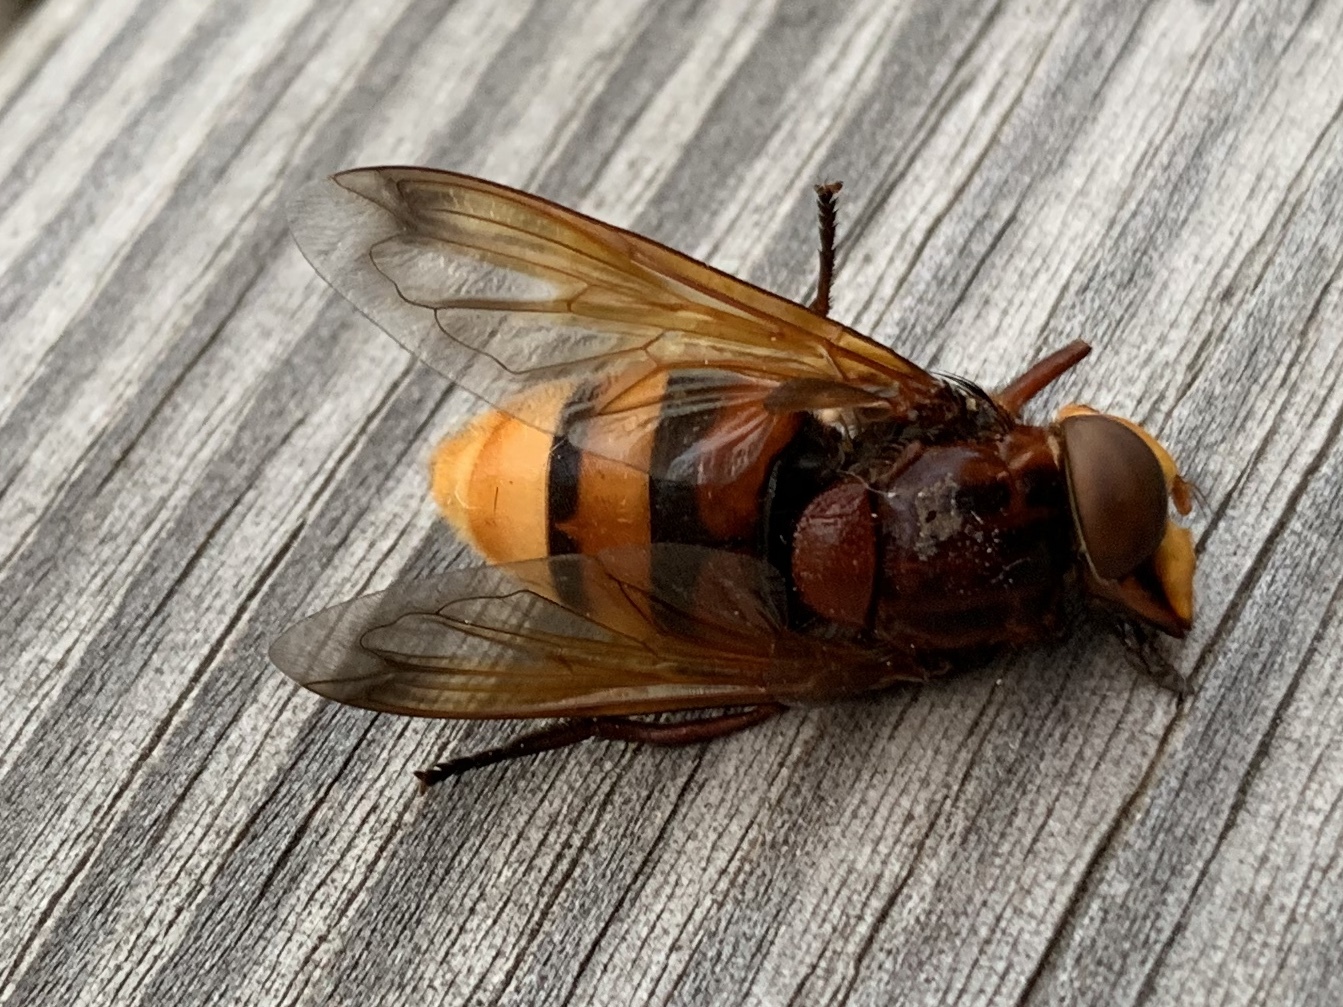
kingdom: Animalia
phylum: Arthropoda
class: Insecta
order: Diptera
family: Syrphidae
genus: Volucella
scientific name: Volucella zonaria
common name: Hornet hoverfly
